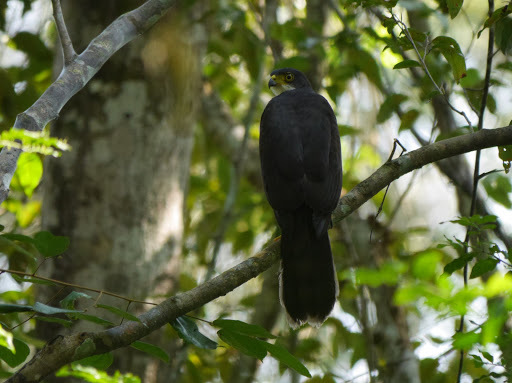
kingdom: Animalia
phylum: Chordata
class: Aves
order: Accipitriformes
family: Accipitridae
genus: Accipiter
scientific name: Accipiter melanoleucus
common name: Black sparrowhawk
